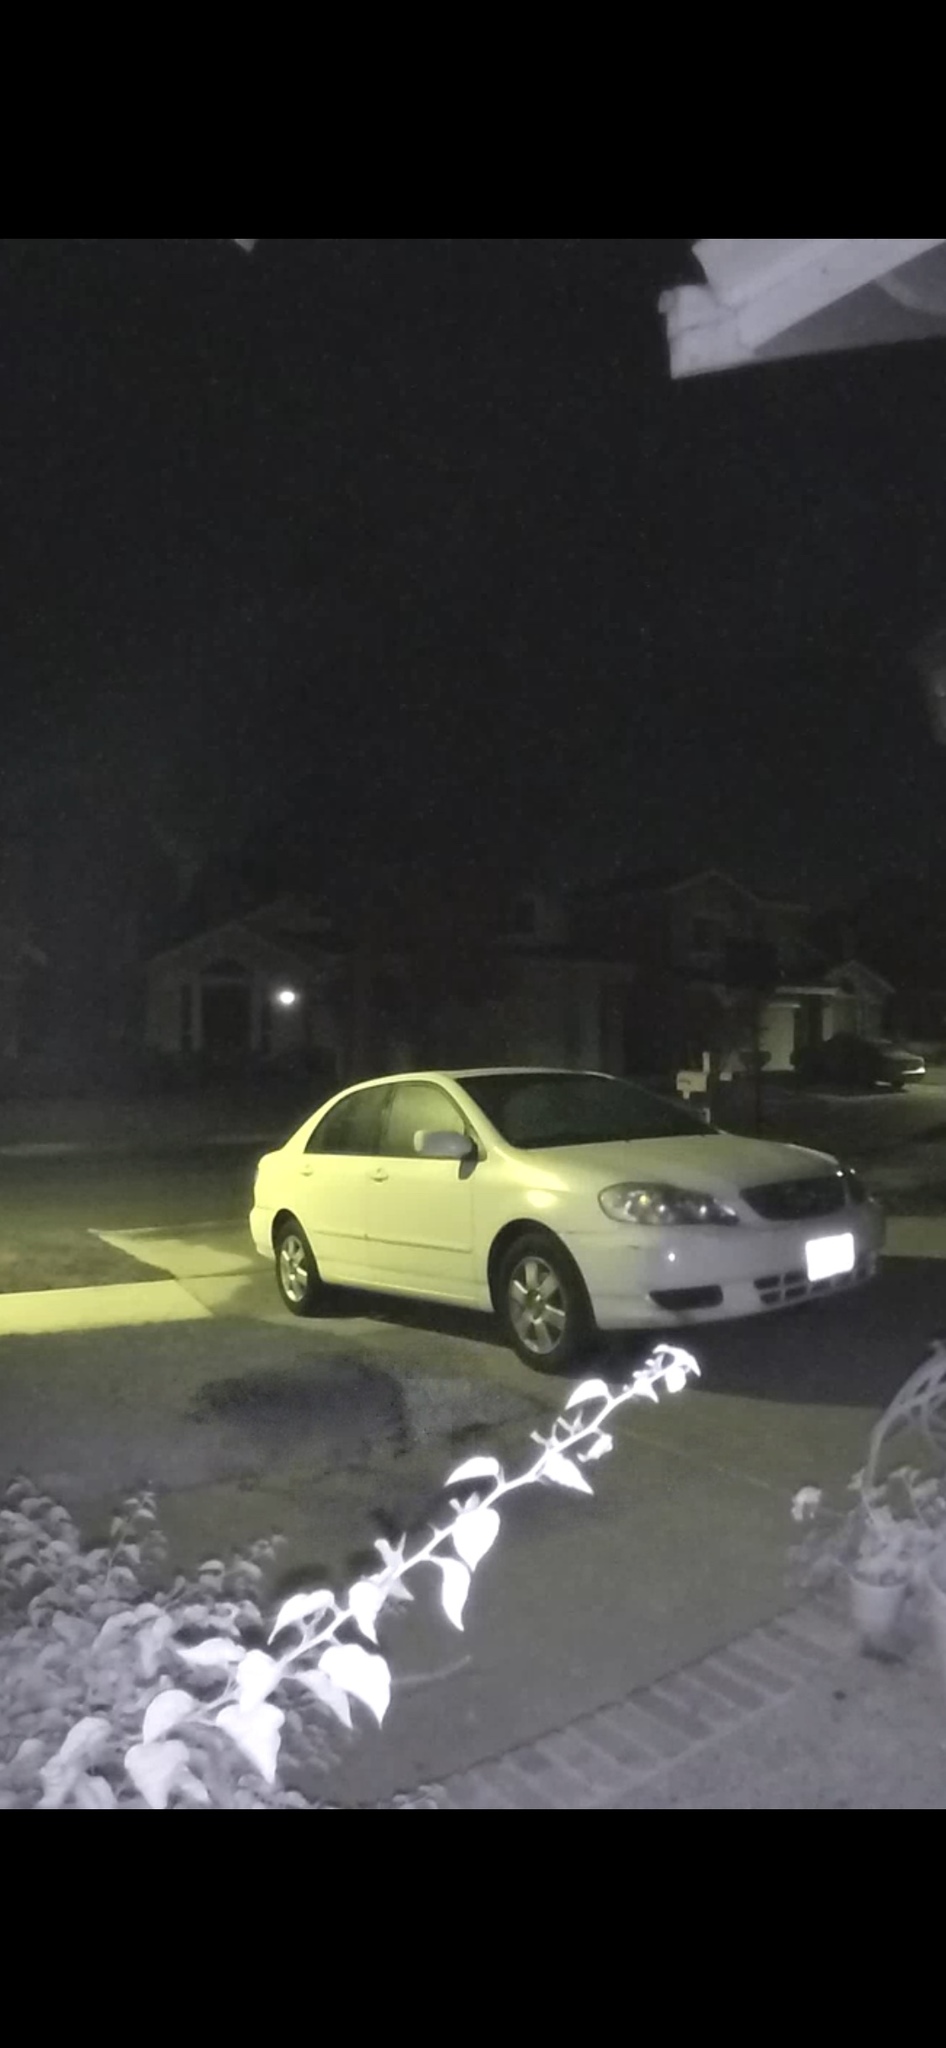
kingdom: Animalia
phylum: Chordata
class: Mammalia
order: Carnivora
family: Procyonidae
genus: Procyon
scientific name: Procyon lotor
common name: Raccoon
